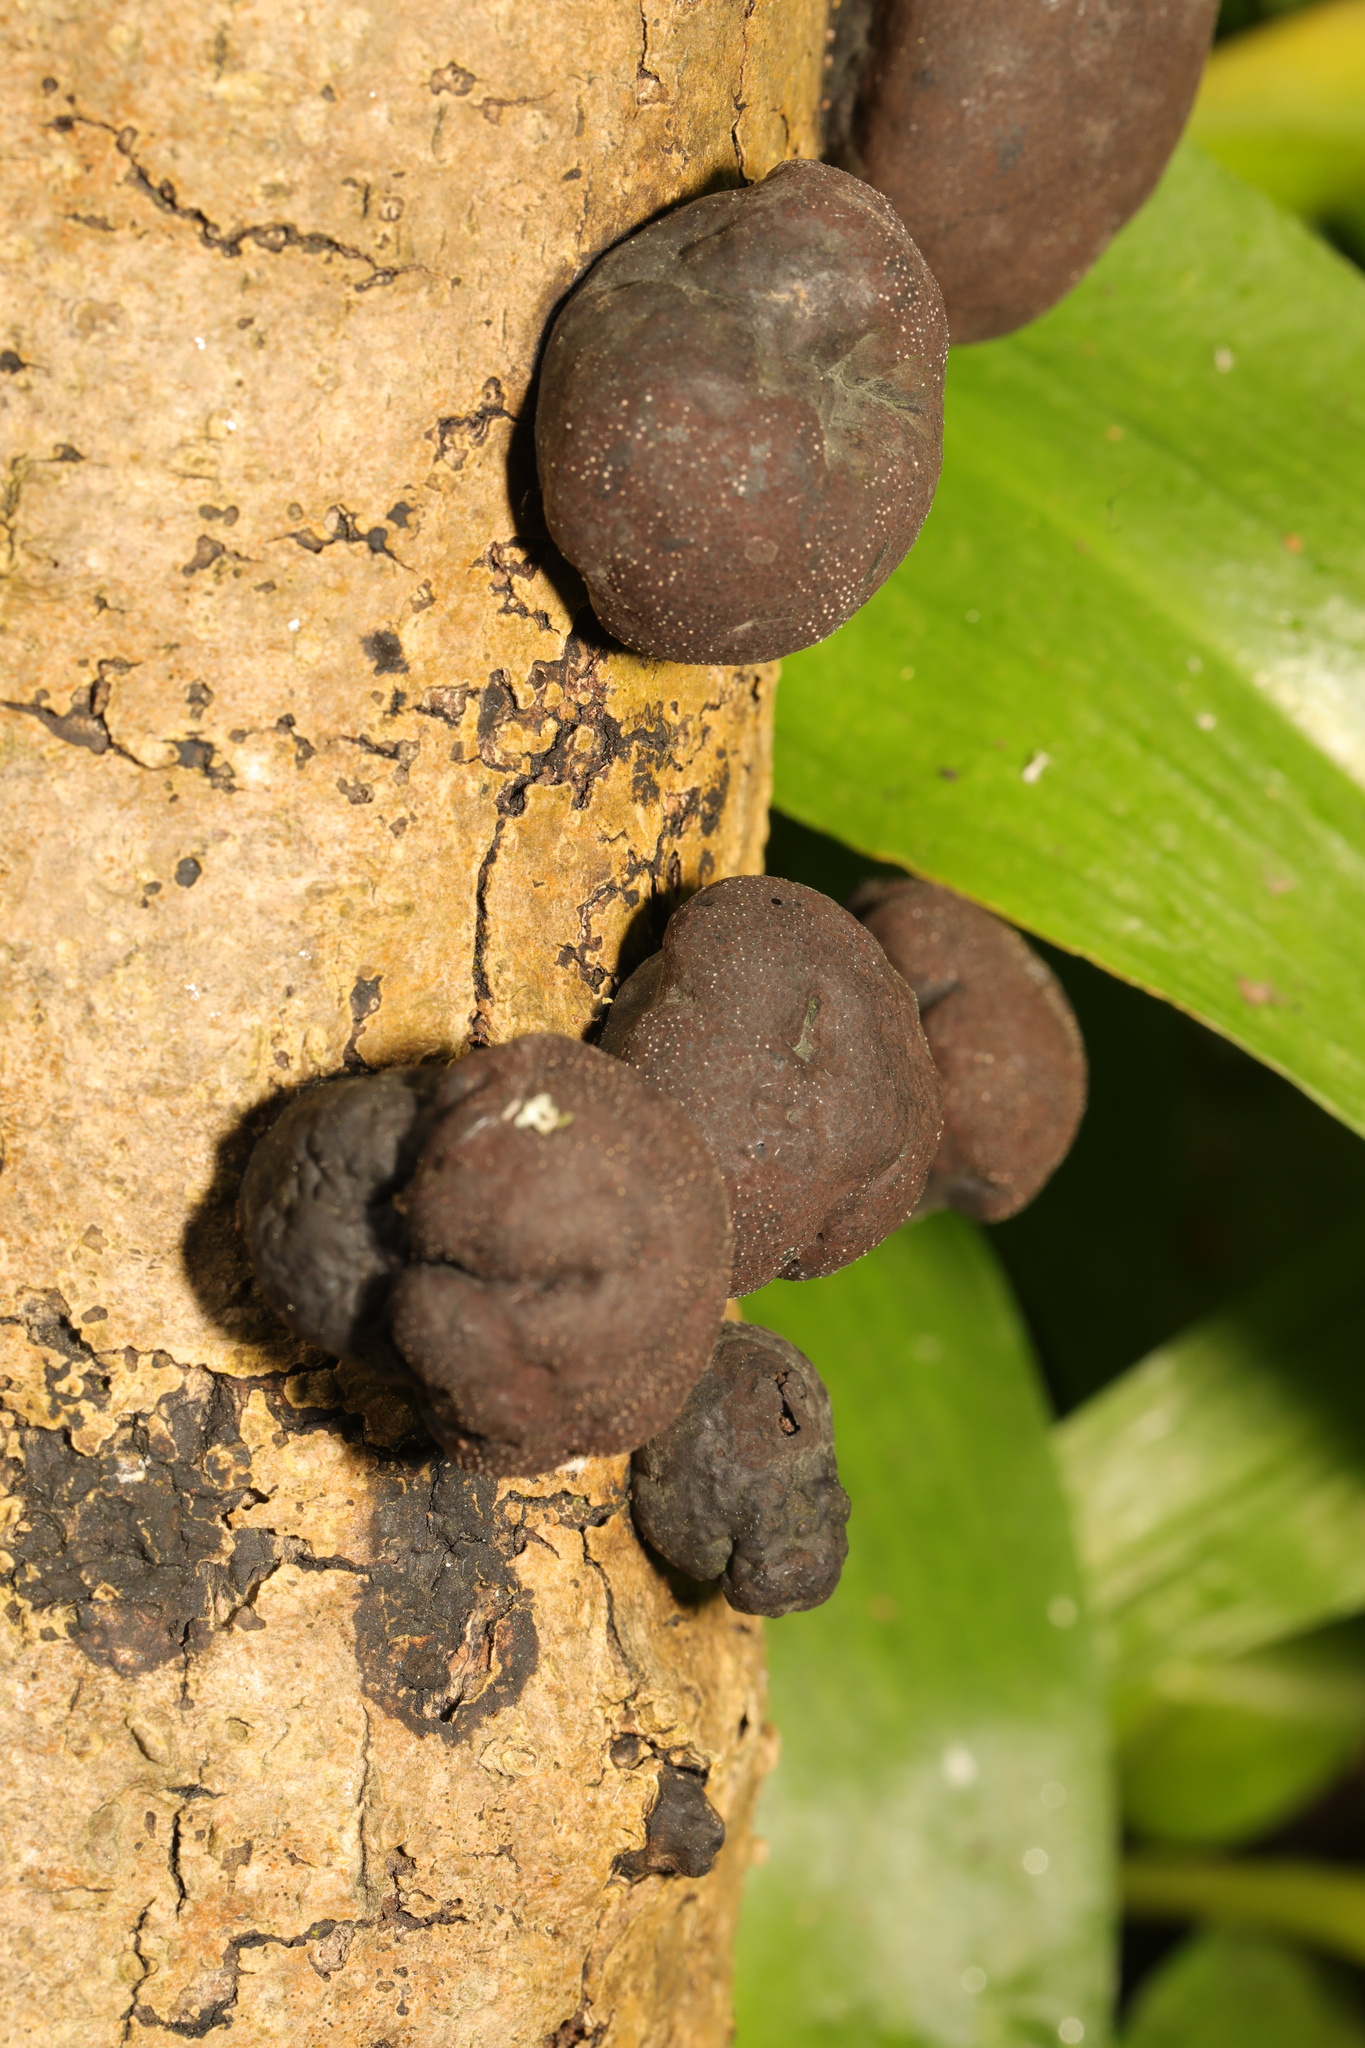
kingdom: Fungi
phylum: Ascomycota
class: Sordariomycetes
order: Xylariales
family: Hypoxylaceae
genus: Daldinia
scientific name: Daldinia concentrica
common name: Cramp balls
